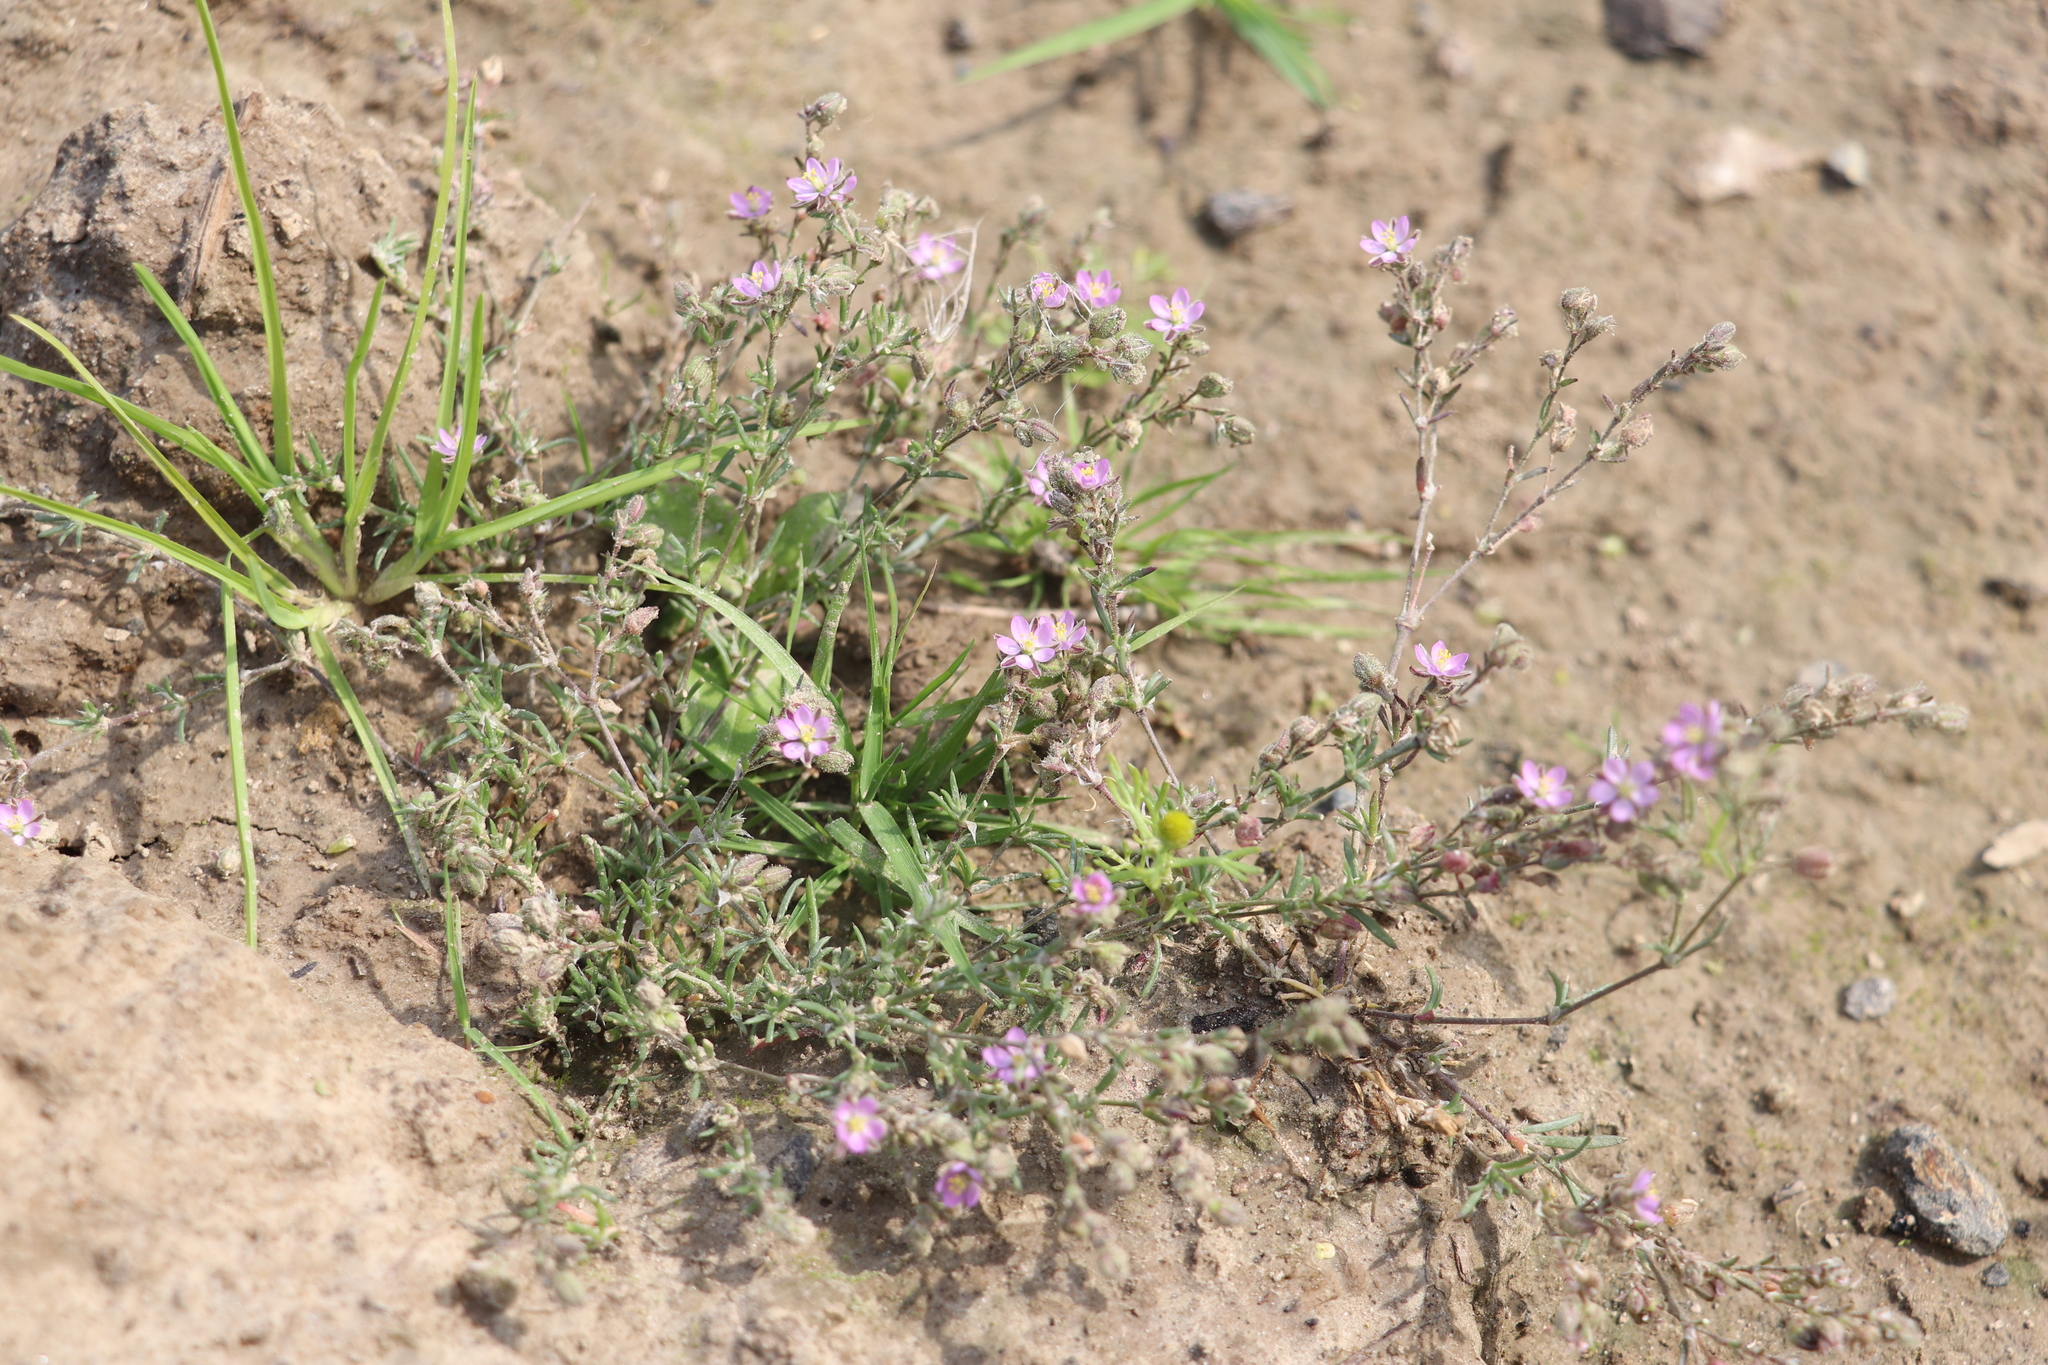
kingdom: Plantae
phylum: Tracheophyta
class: Magnoliopsida
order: Caryophyllales
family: Caryophyllaceae
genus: Spergularia
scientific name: Spergularia rubra
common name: Red sand-spurrey
